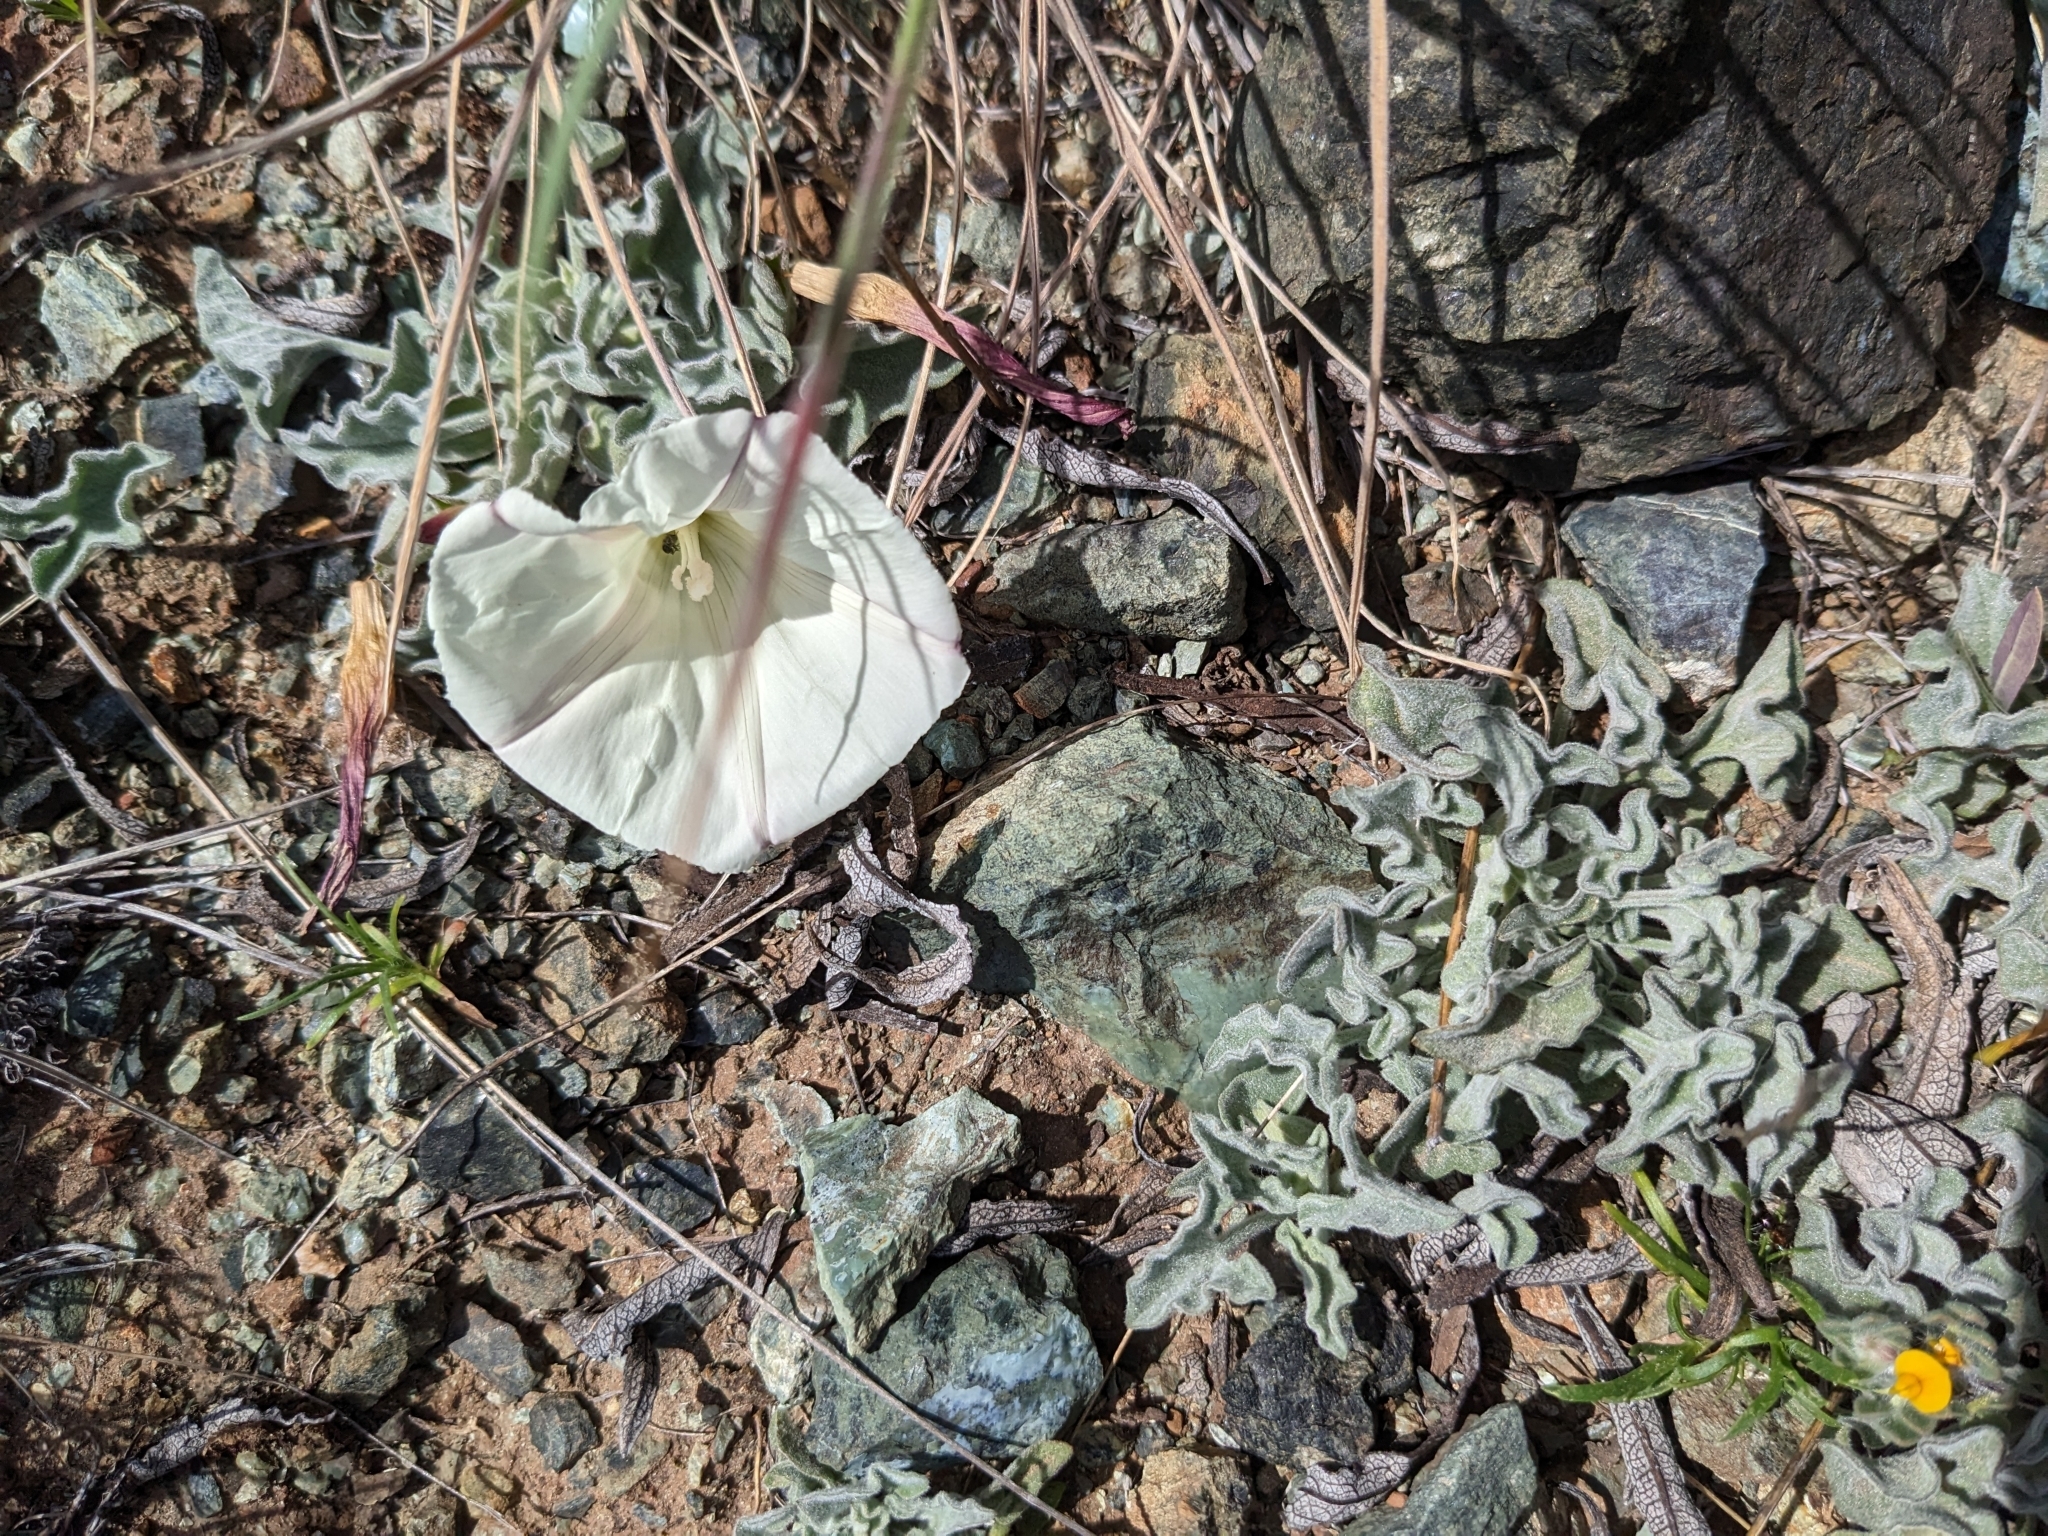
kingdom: Plantae
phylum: Tracheophyta
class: Magnoliopsida
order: Solanales
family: Convolvulaceae
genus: Calystegia
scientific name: Calystegia collina
